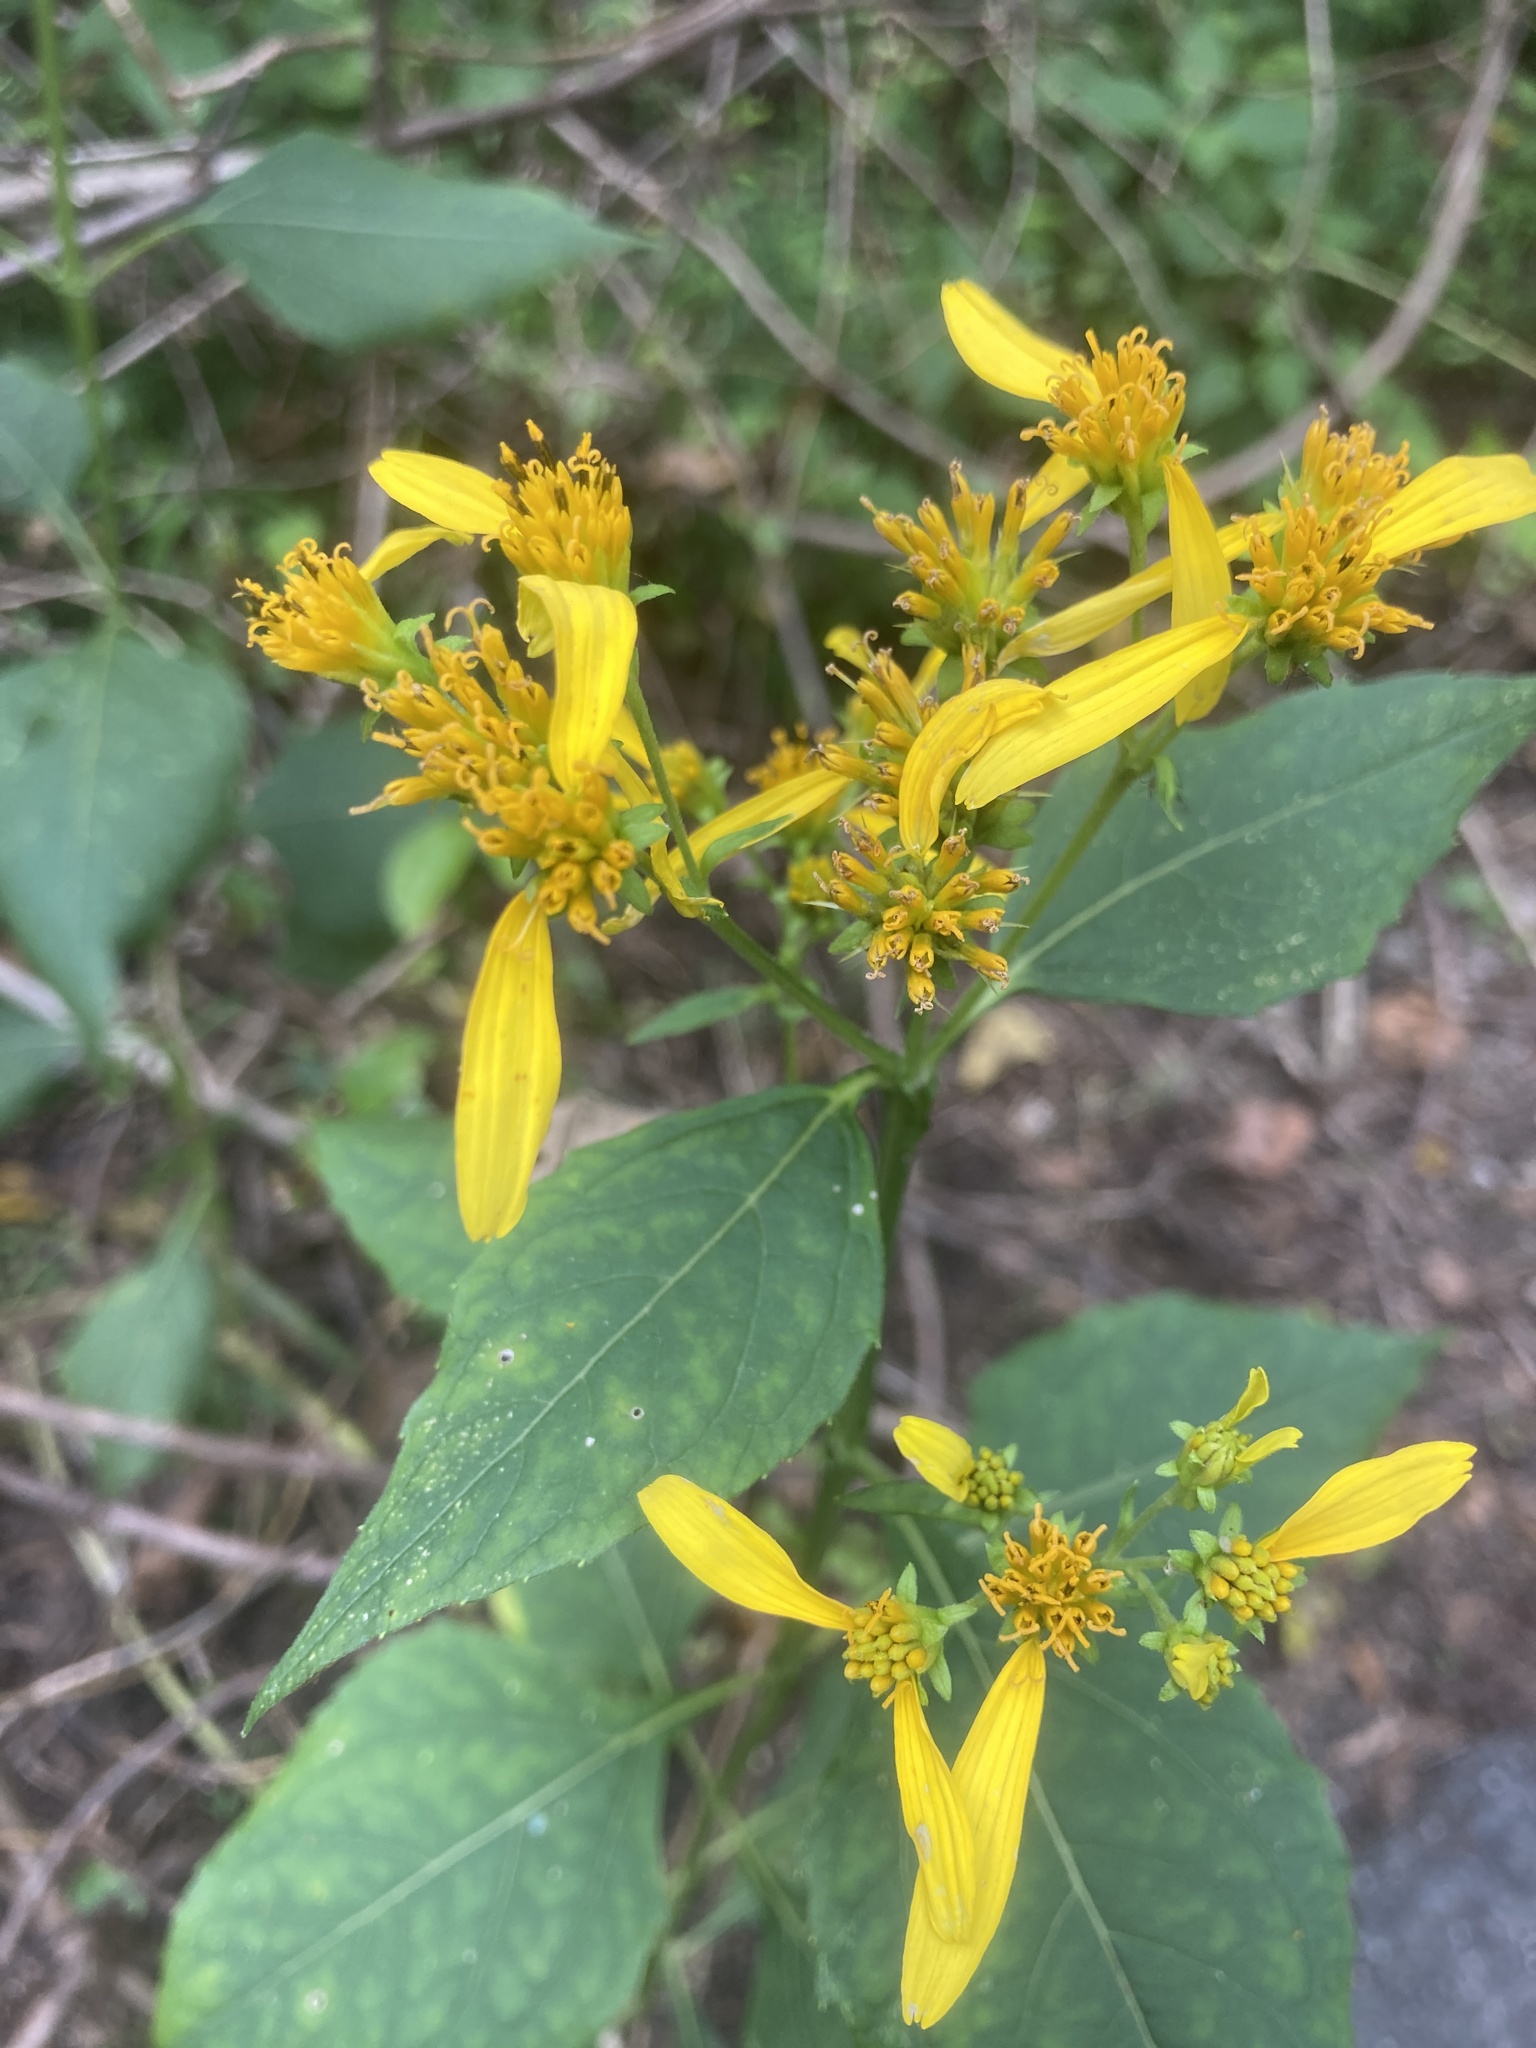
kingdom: Plantae
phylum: Tracheophyta
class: Magnoliopsida
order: Asterales
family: Asteraceae
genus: Verbesina
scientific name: Verbesina occidentalis
